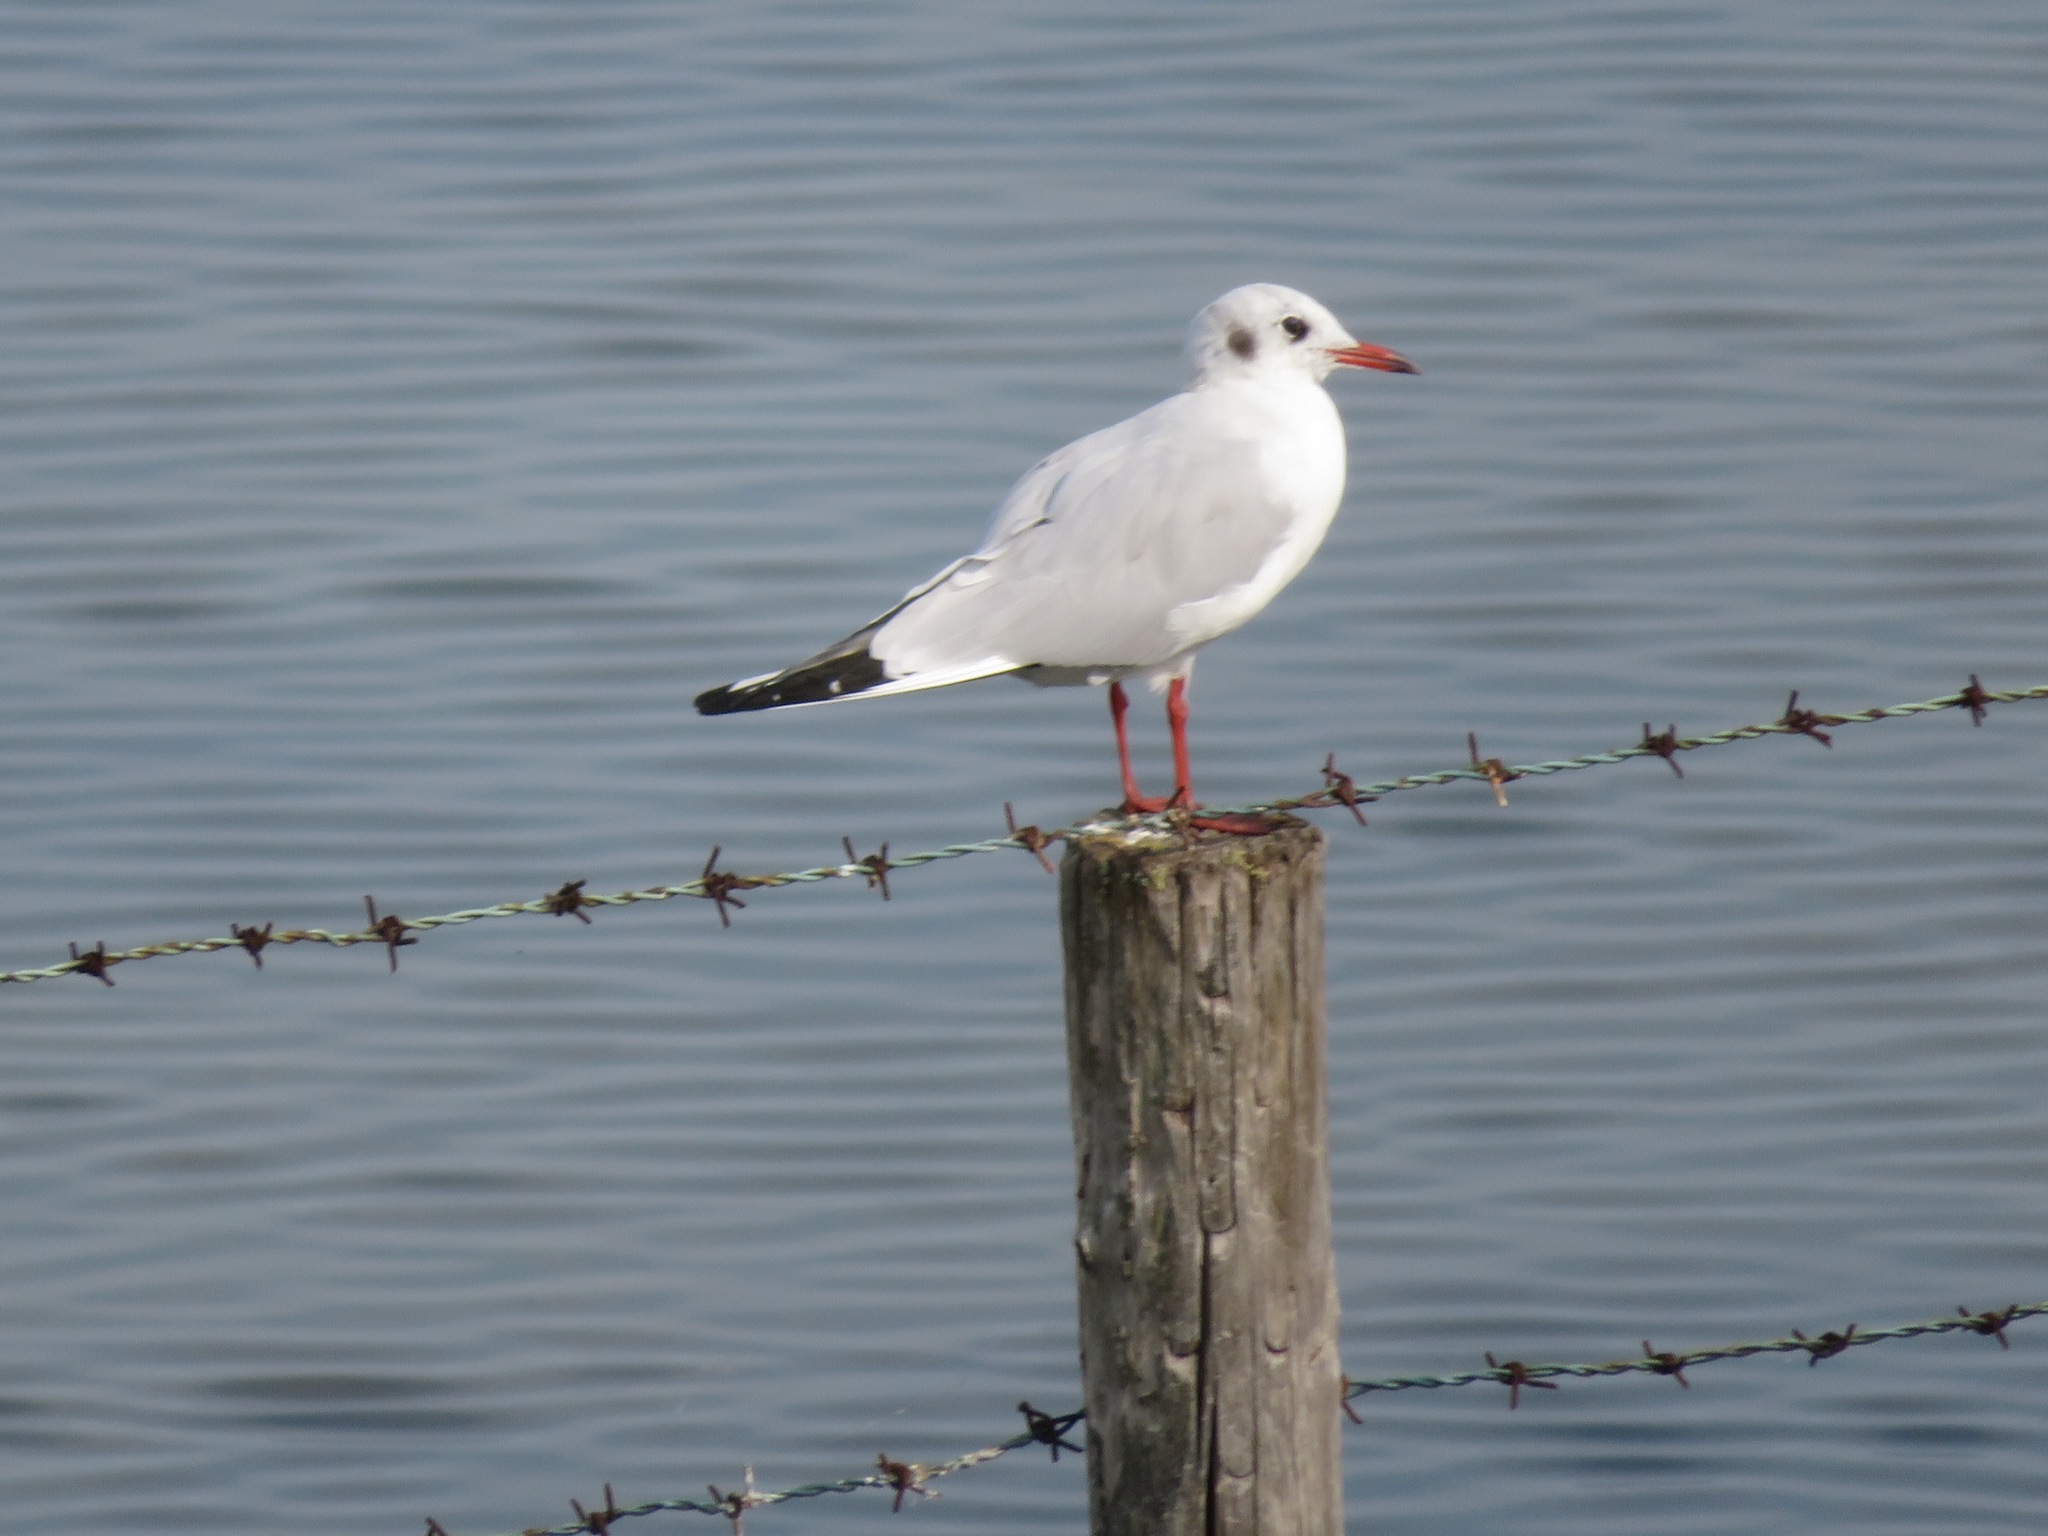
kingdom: Animalia
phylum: Chordata
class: Aves
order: Charadriiformes
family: Laridae
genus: Chroicocephalus
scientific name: Chroicocephalus ridibundus
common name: Black-headed gull
